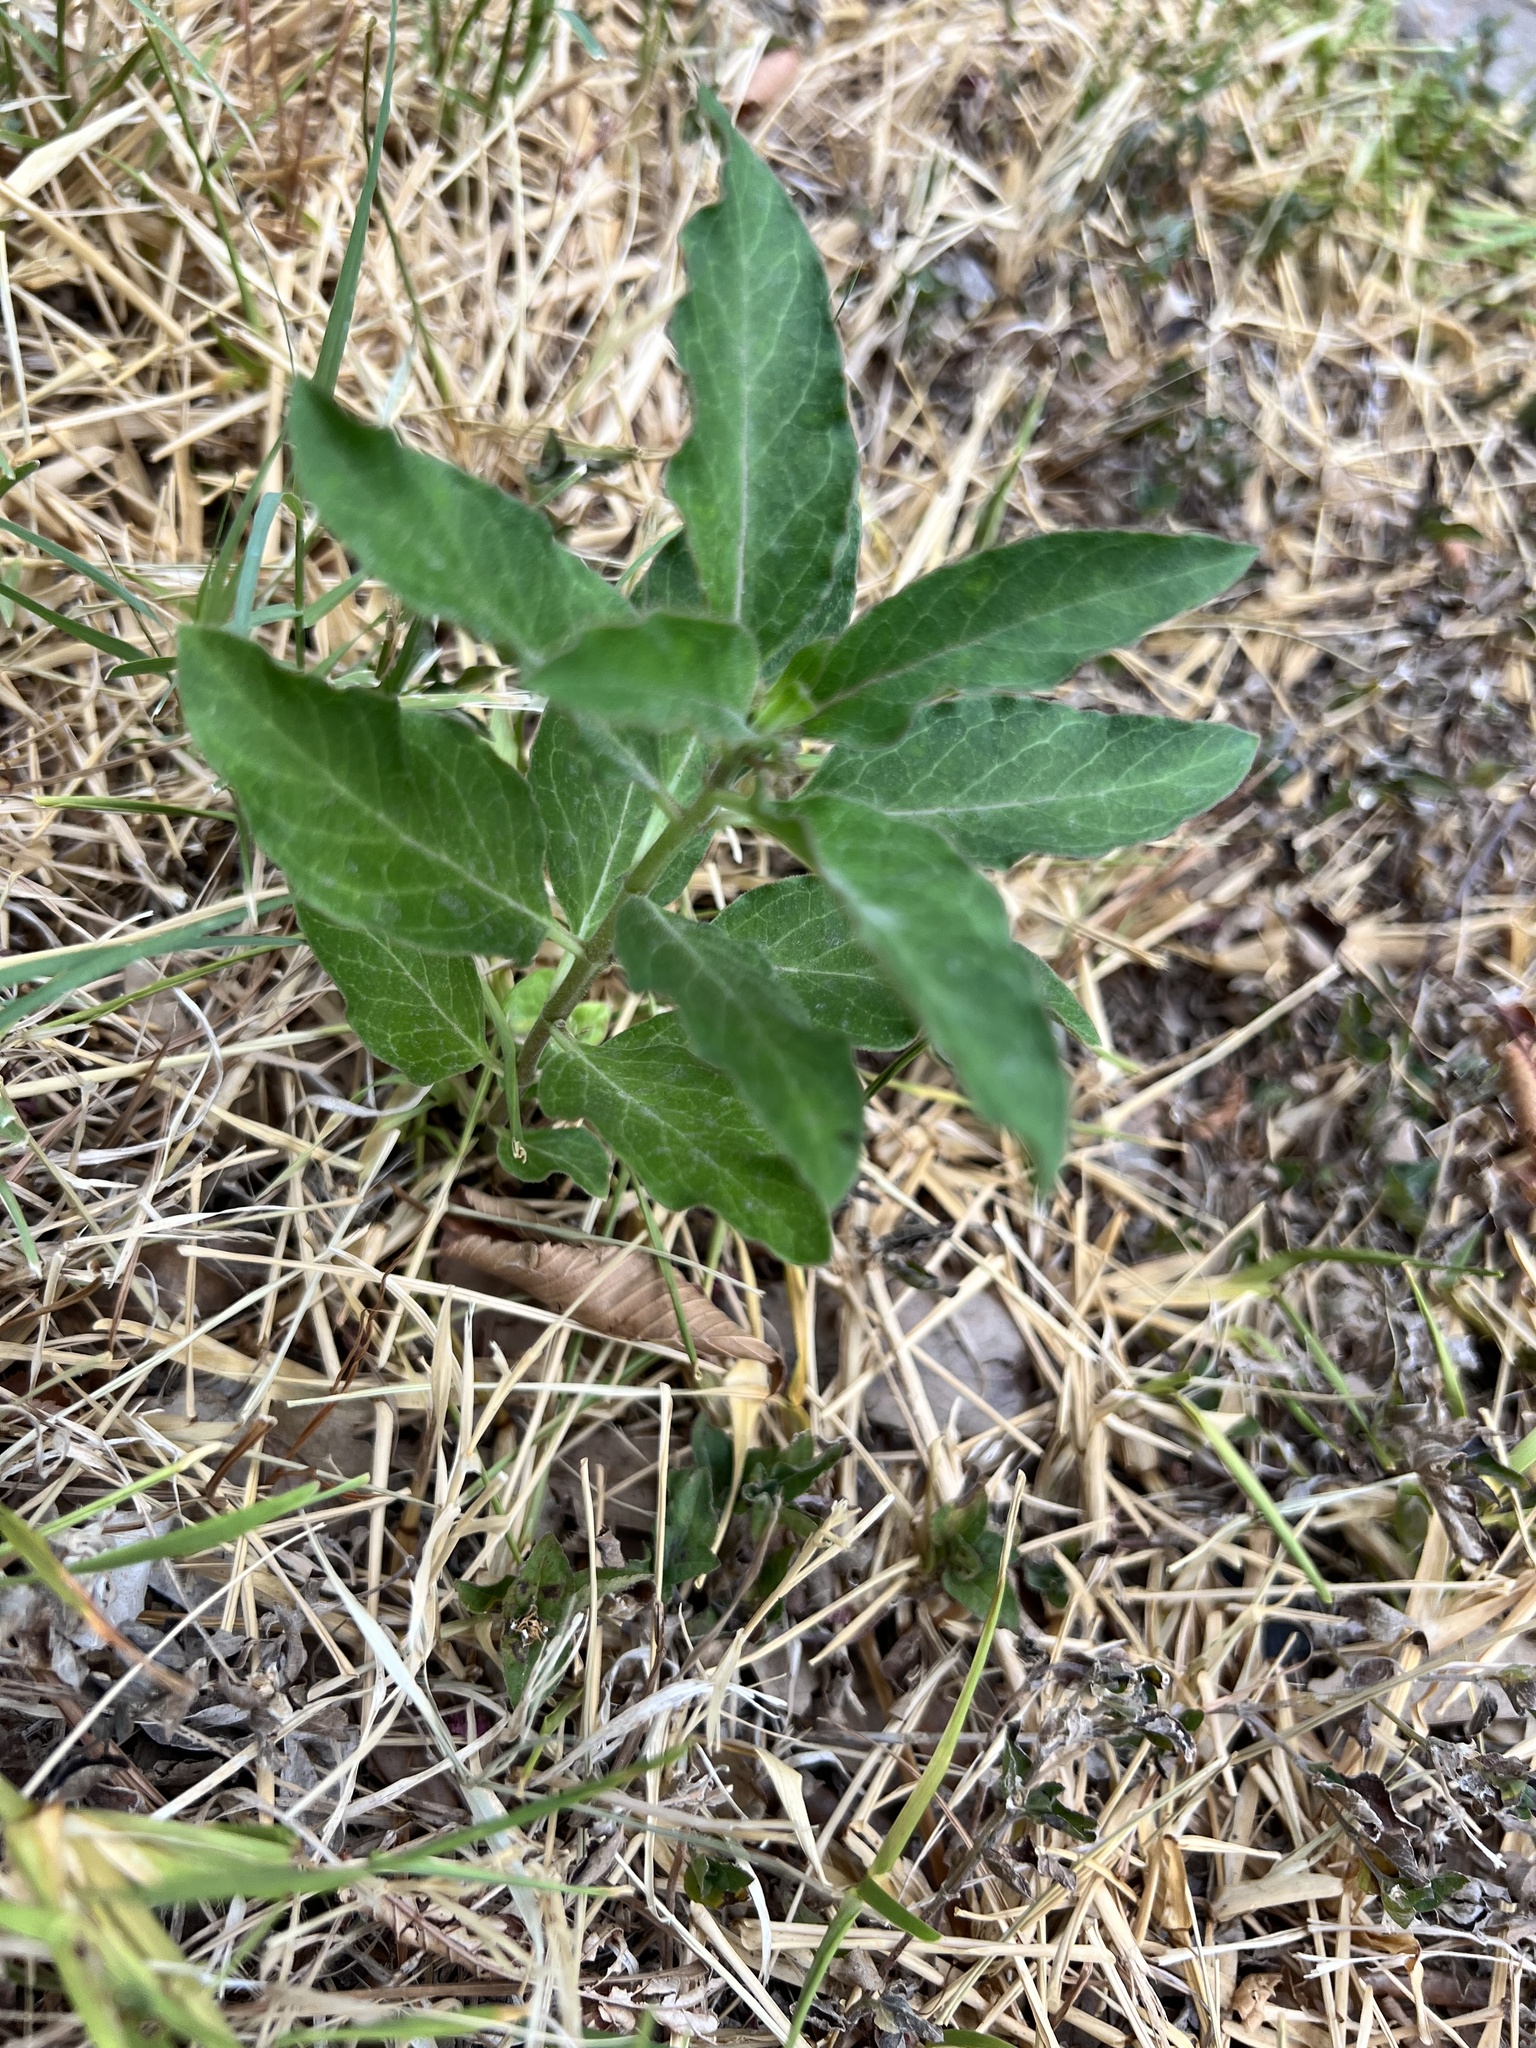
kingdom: Plantae
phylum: Tracheophyta
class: Magnoliopsida
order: Gentianales
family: Apocynaceae
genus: Asclepias
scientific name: Asclepias oenotheroides
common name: Zizotes milkweed
